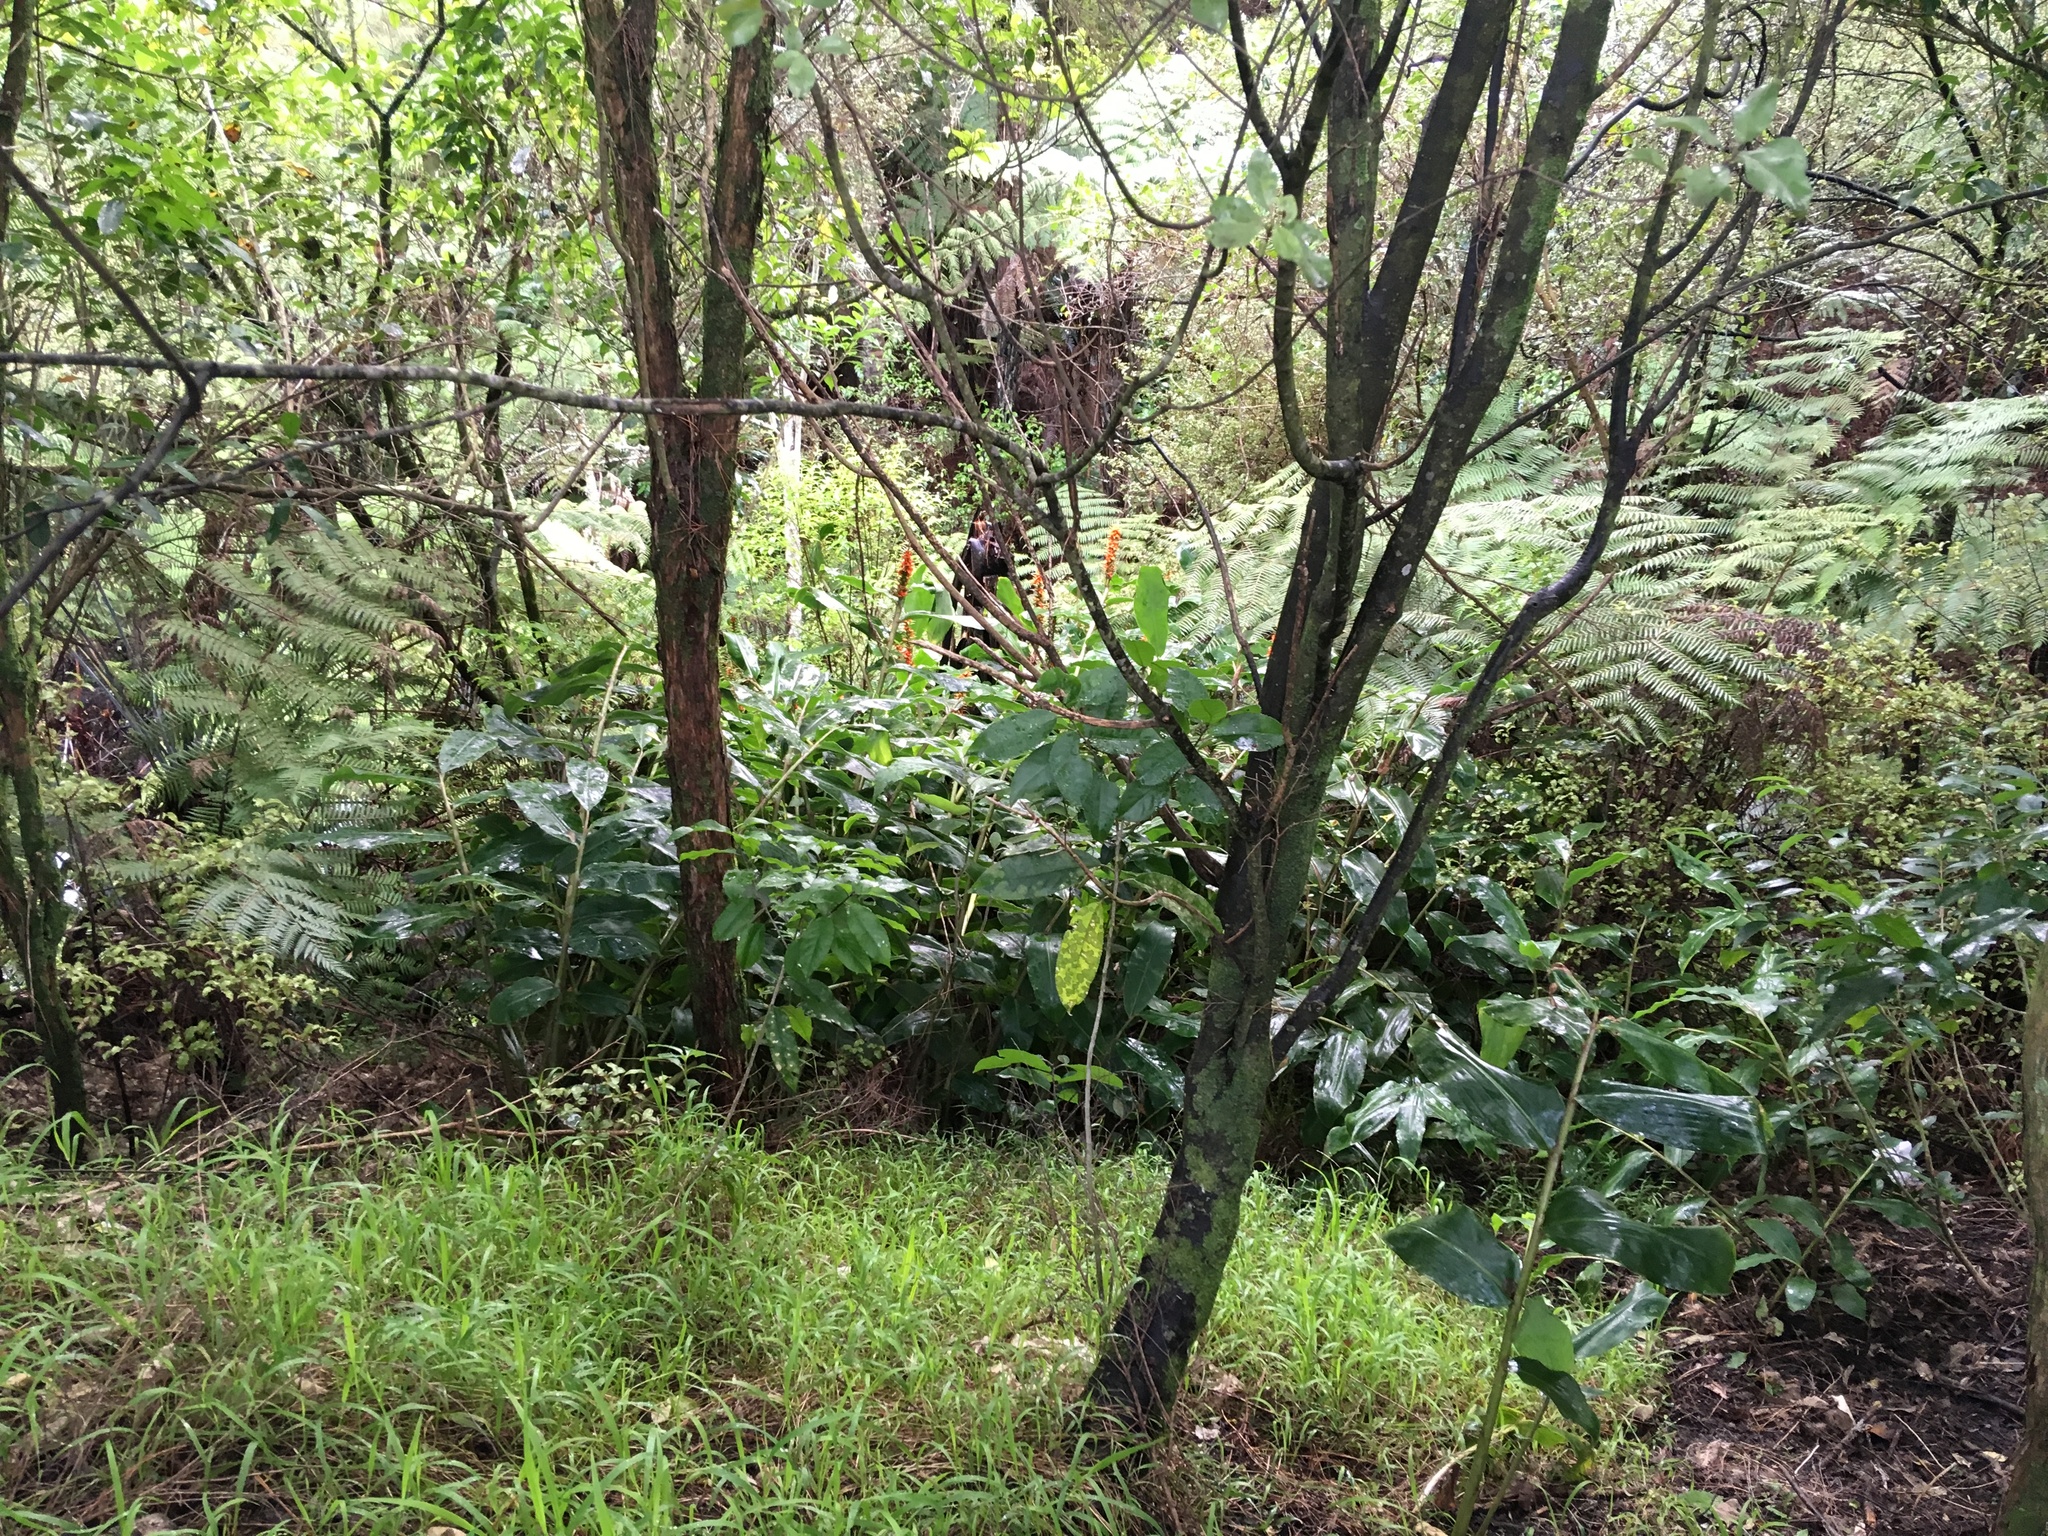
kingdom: Plantae
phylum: Tracheophyta
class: Liliopsida
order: Zingiberales
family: Zingiberaceae
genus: Hedychium
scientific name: Hedychium gardnerianum
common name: Himalayan ginger
